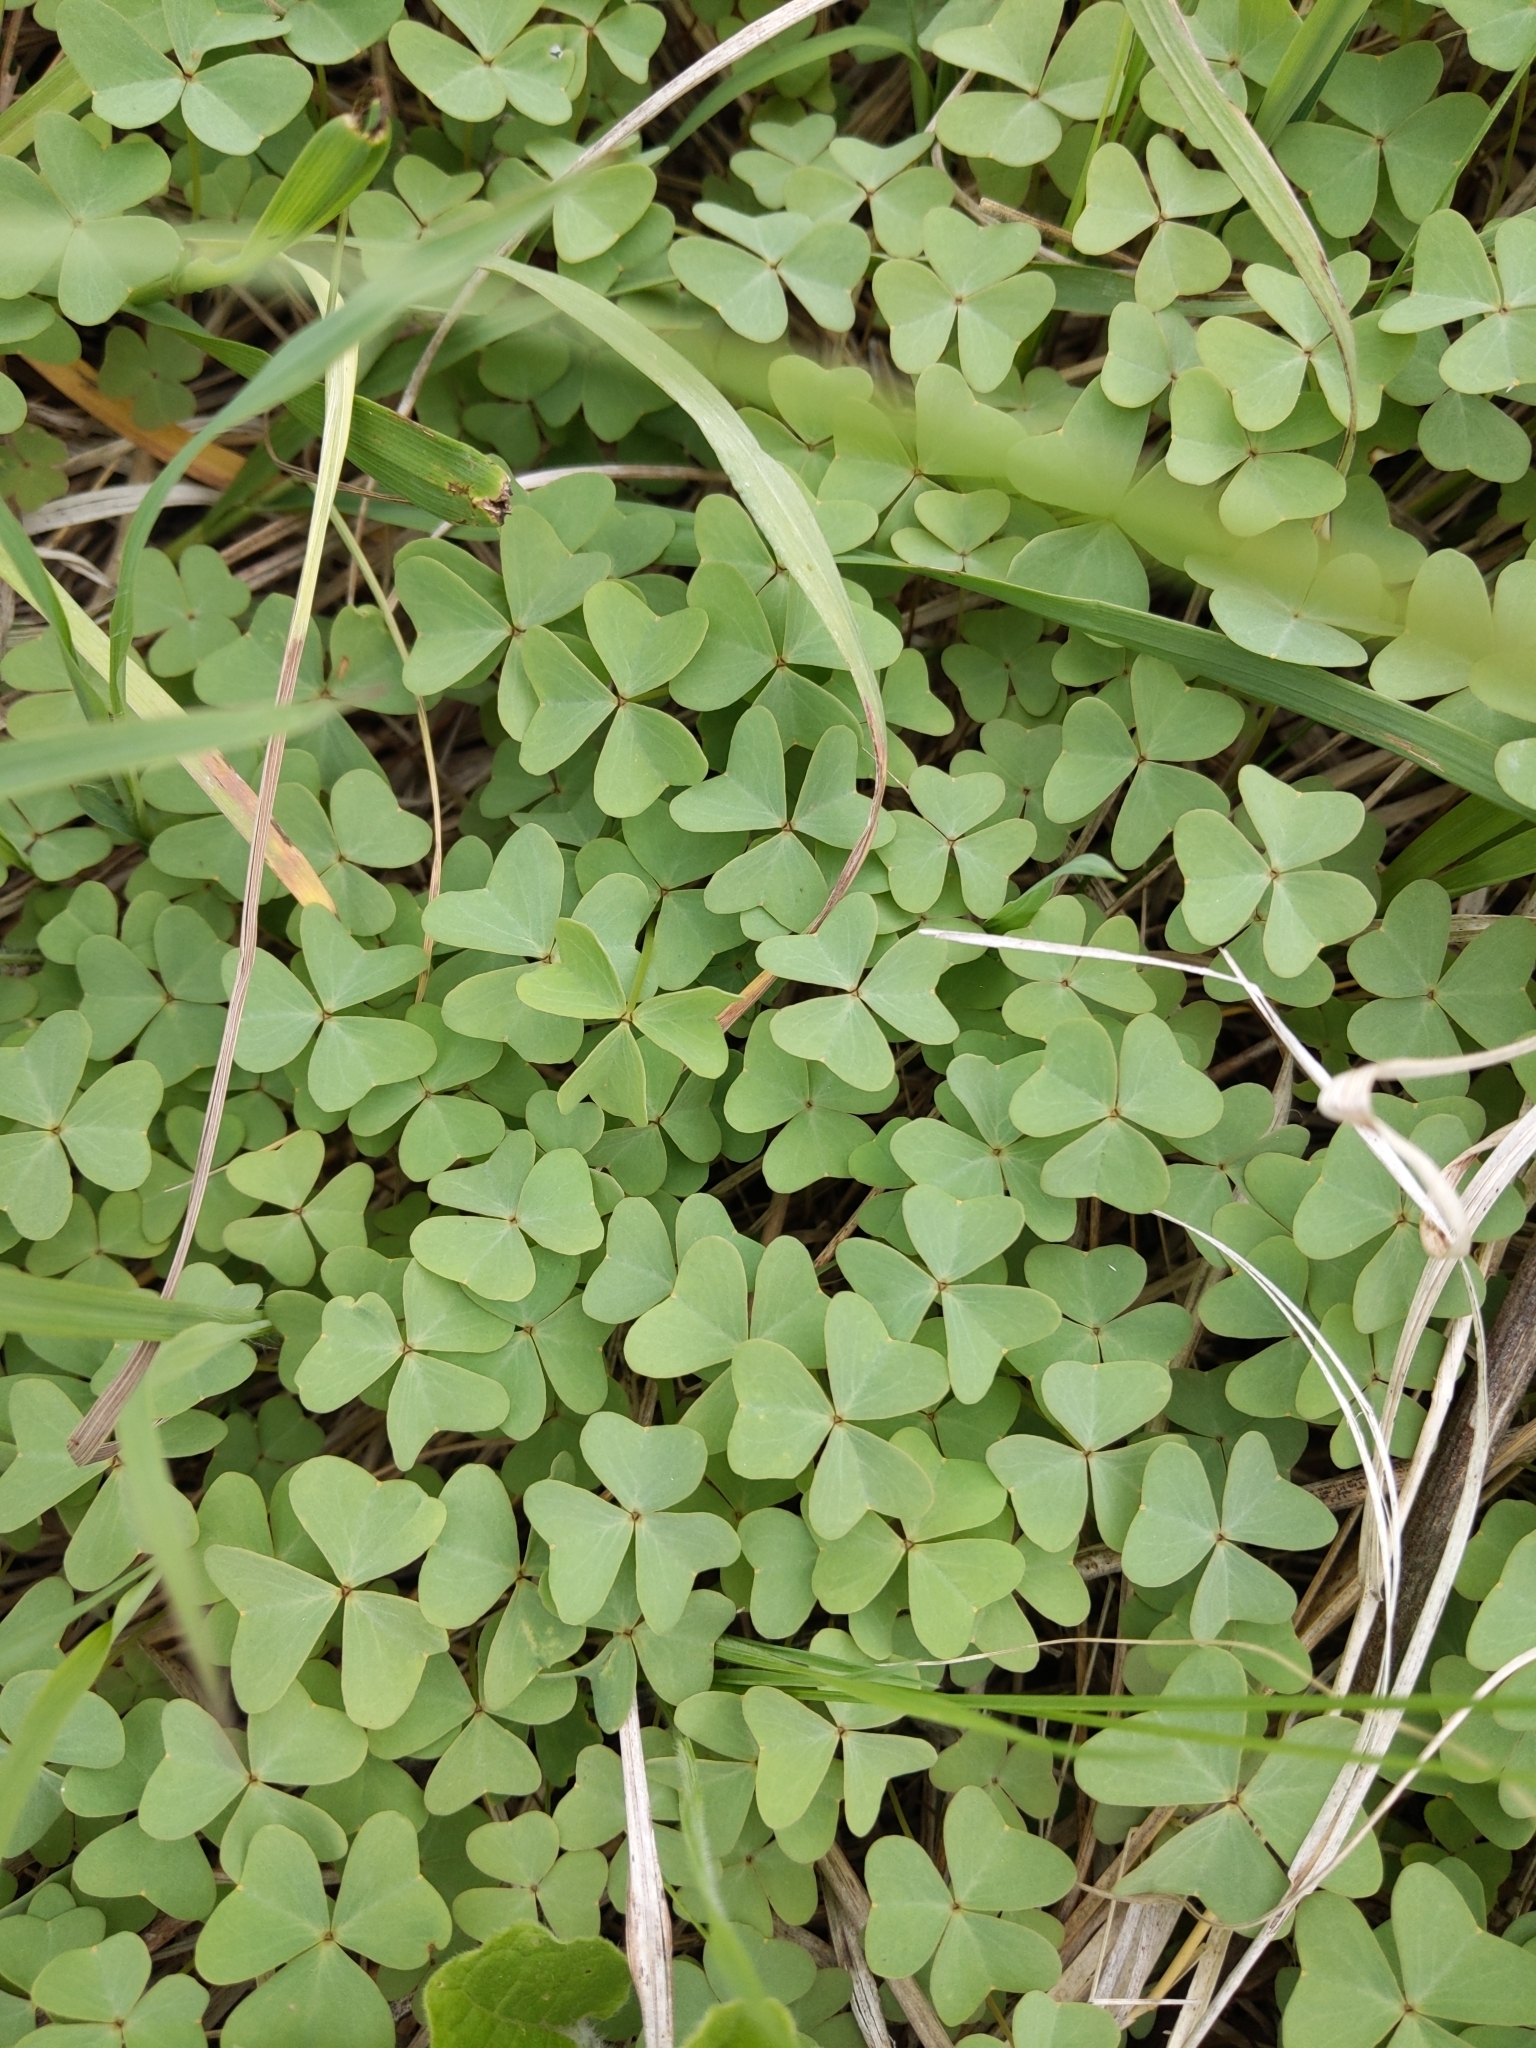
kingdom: Plantae
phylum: Tracheophyta
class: Magnoliopsida
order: Oxalidales
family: Oxalidaceae
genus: Oxalis
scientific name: Oxalis violacea
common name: Violet wood-sorrel
